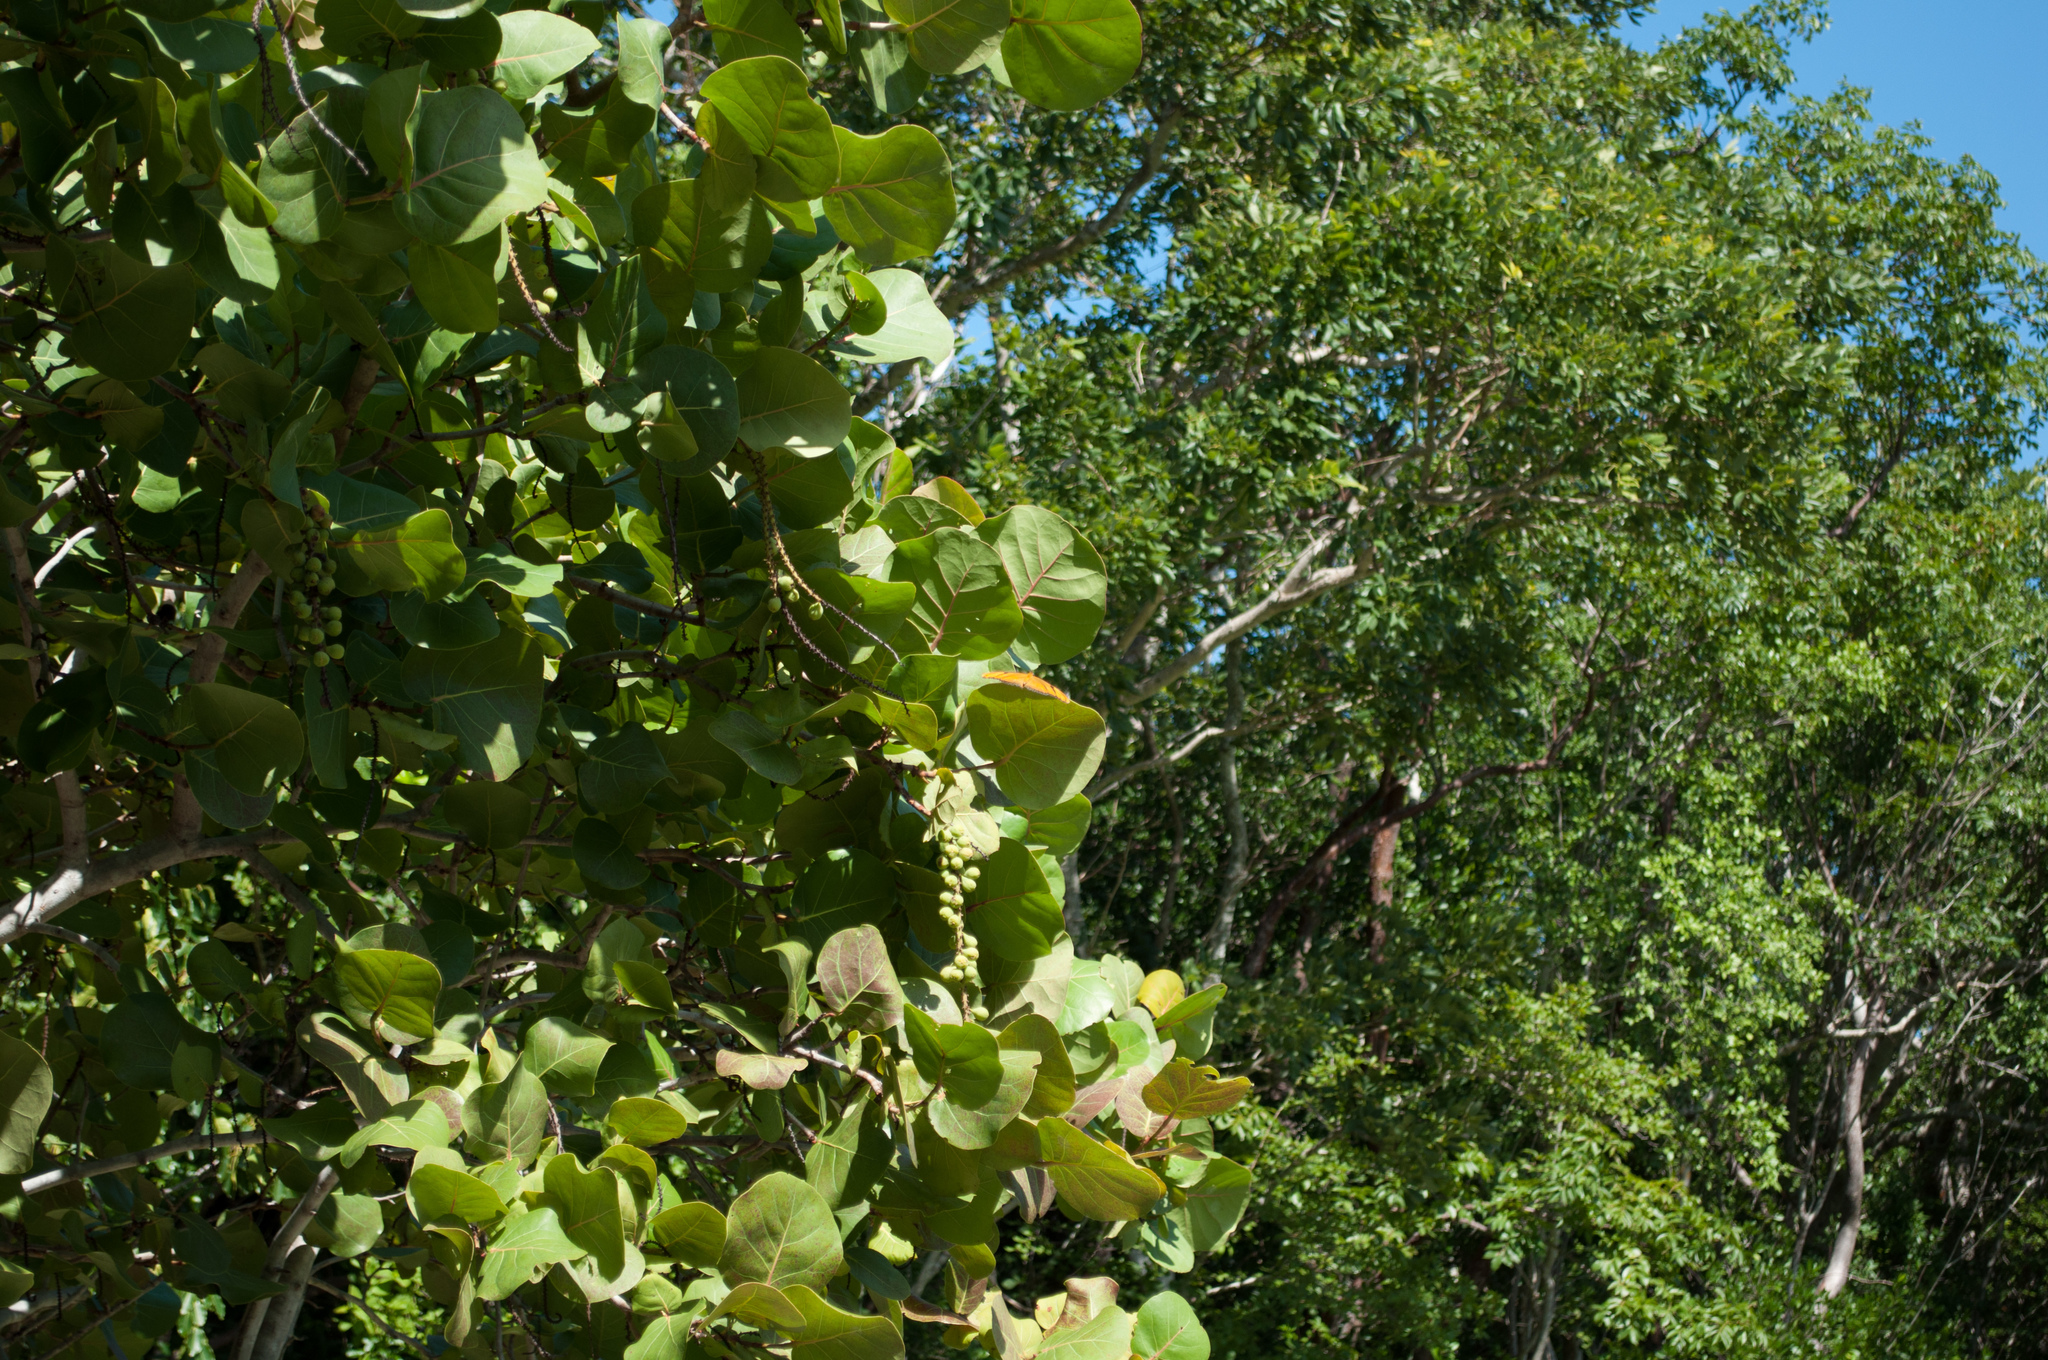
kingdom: Plantae
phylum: Tracheophyta
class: Magnoliopsida
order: Caryophyllales
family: Polygonaceae
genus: Coccoloba
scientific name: Coccoloba uvifera
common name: Seagrape
